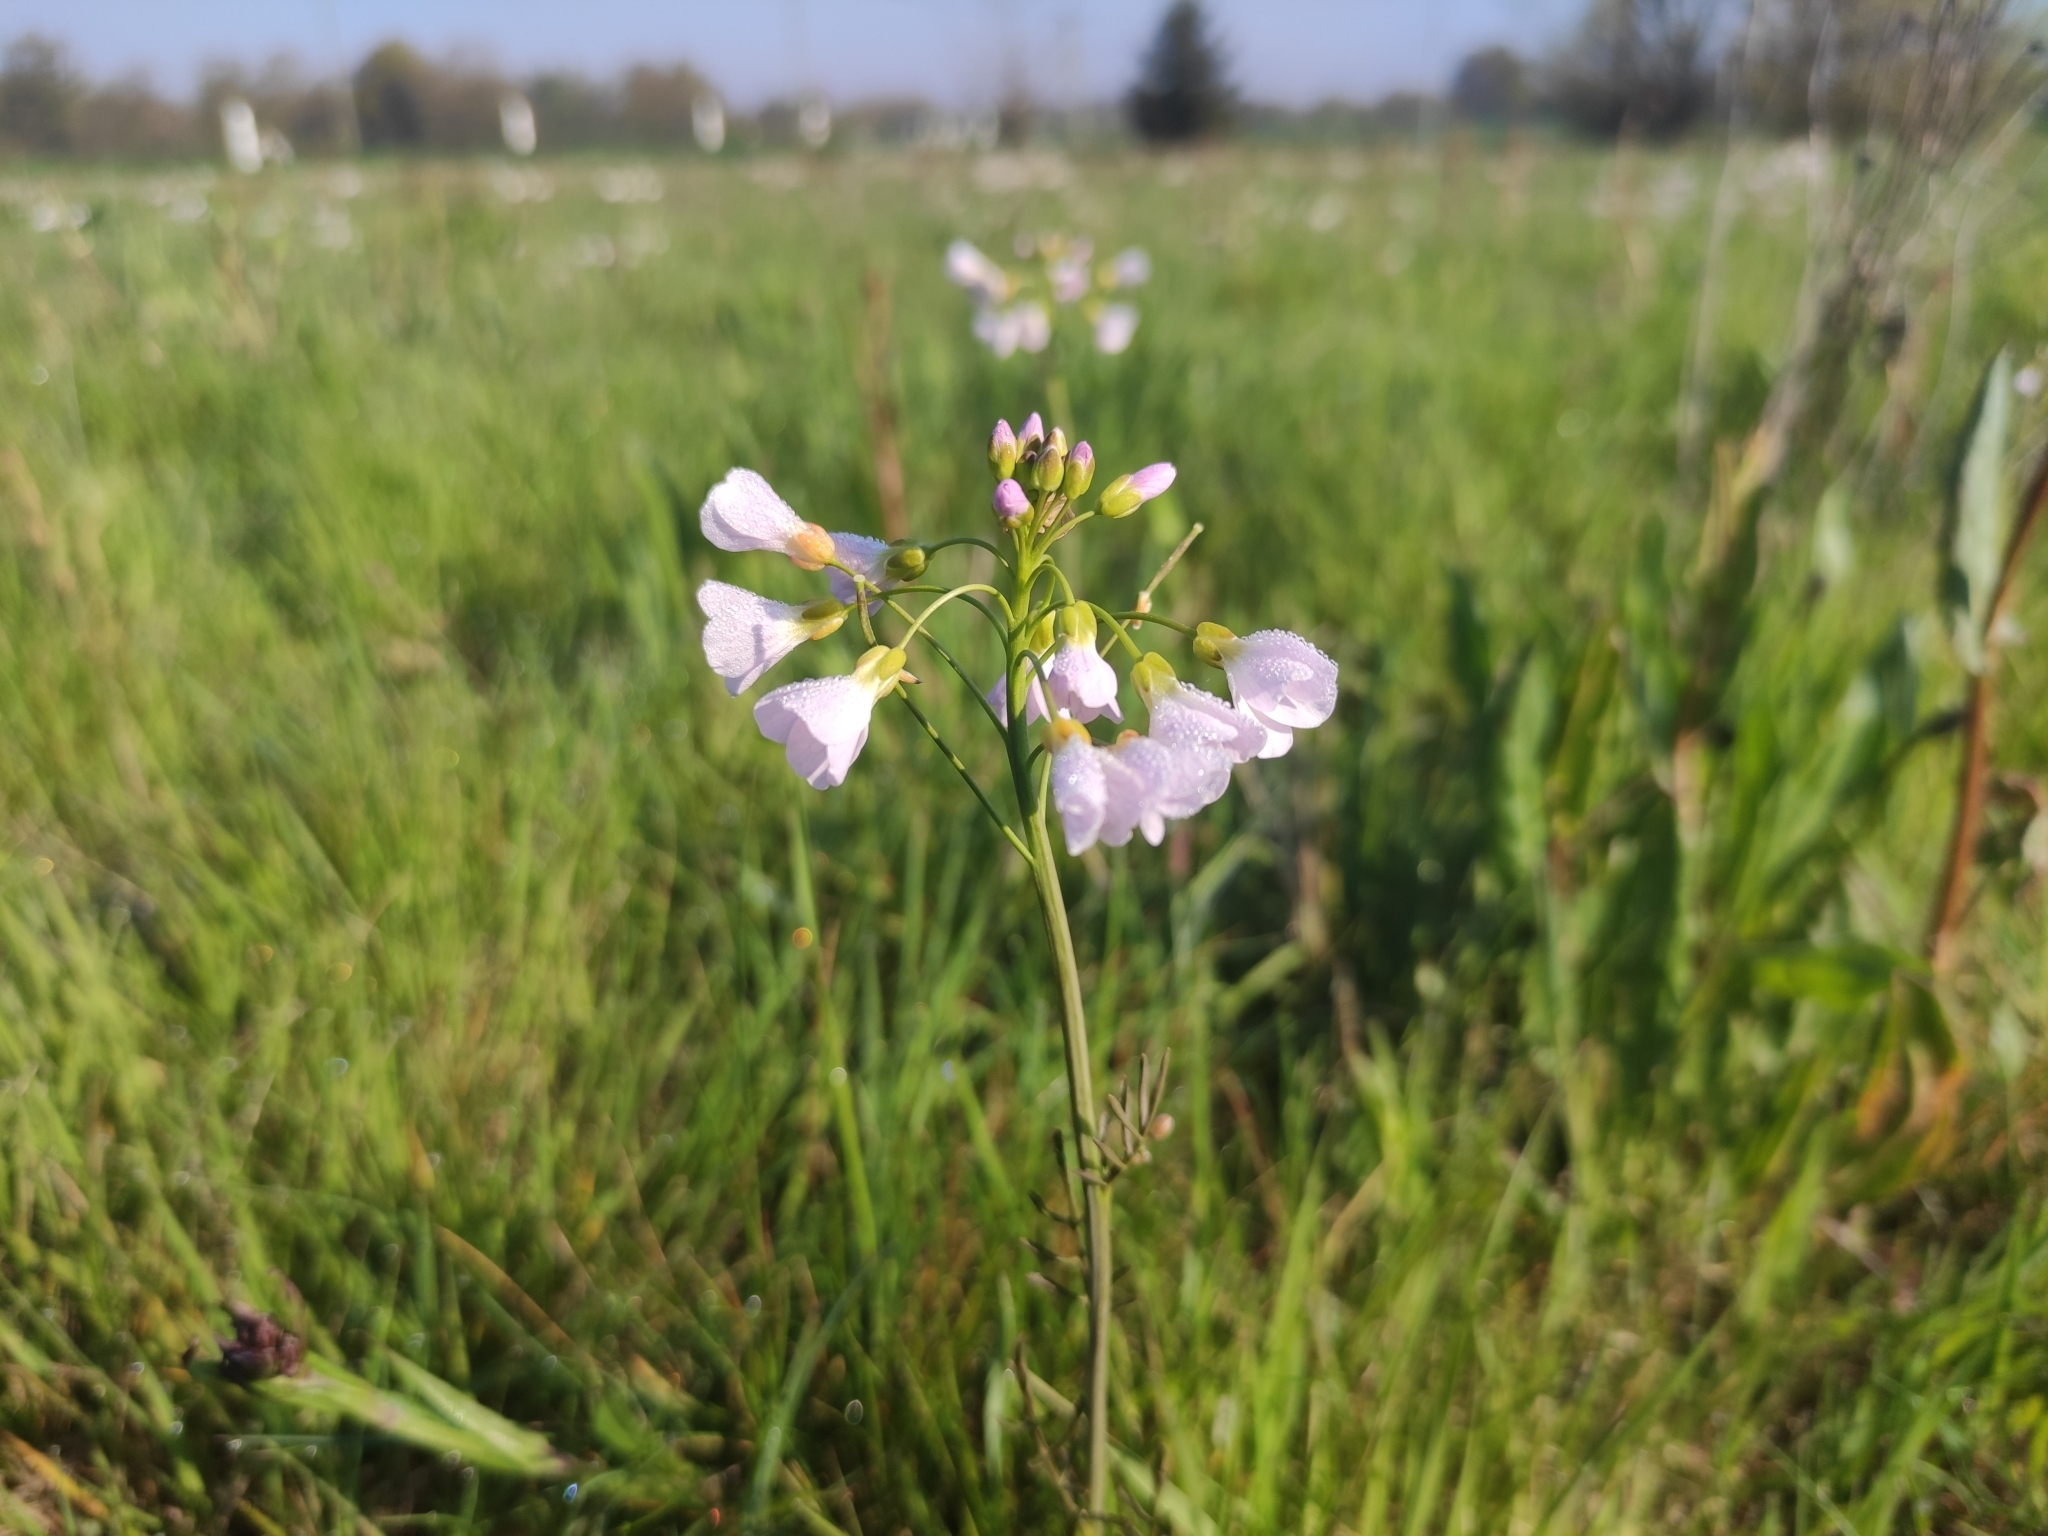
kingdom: Plantae
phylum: Tracheophyta
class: Magnoliopsida
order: Brassicales
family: Brassicaceae
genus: Cardamine
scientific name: Cardamine pratensis
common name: Cuckoo flower
